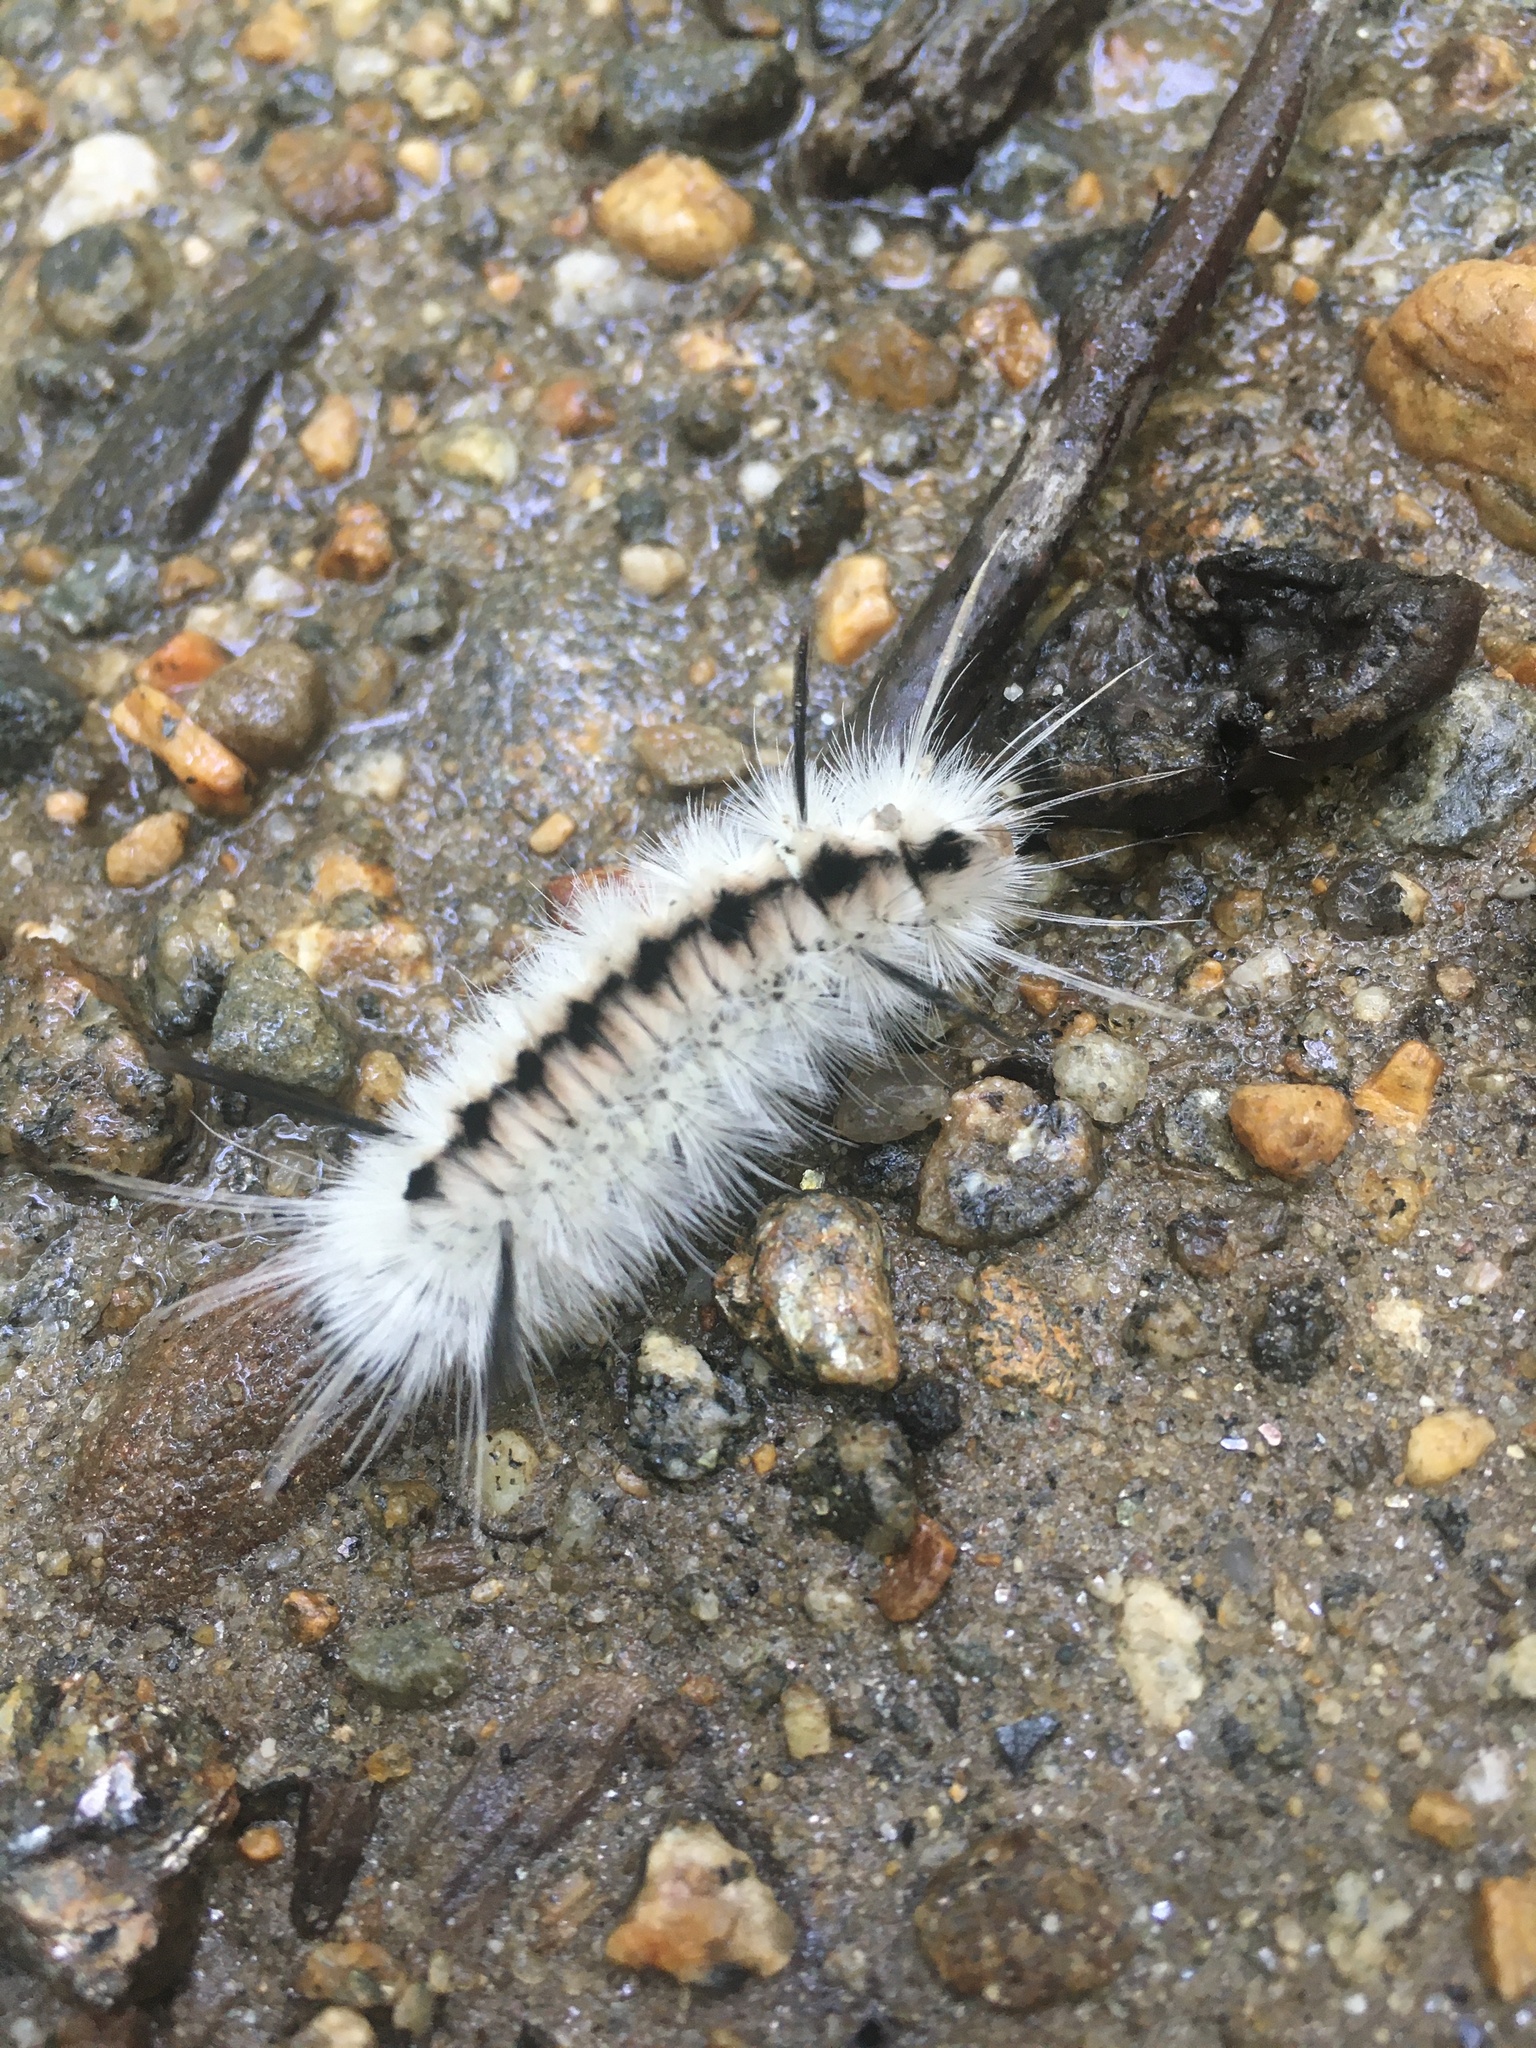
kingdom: Animalia
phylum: Arthropoda
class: Insecta
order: Lepidoptera
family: Erebidae
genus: Lophocampa
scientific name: Lophocampa caryae
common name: Hickory tussock moth
